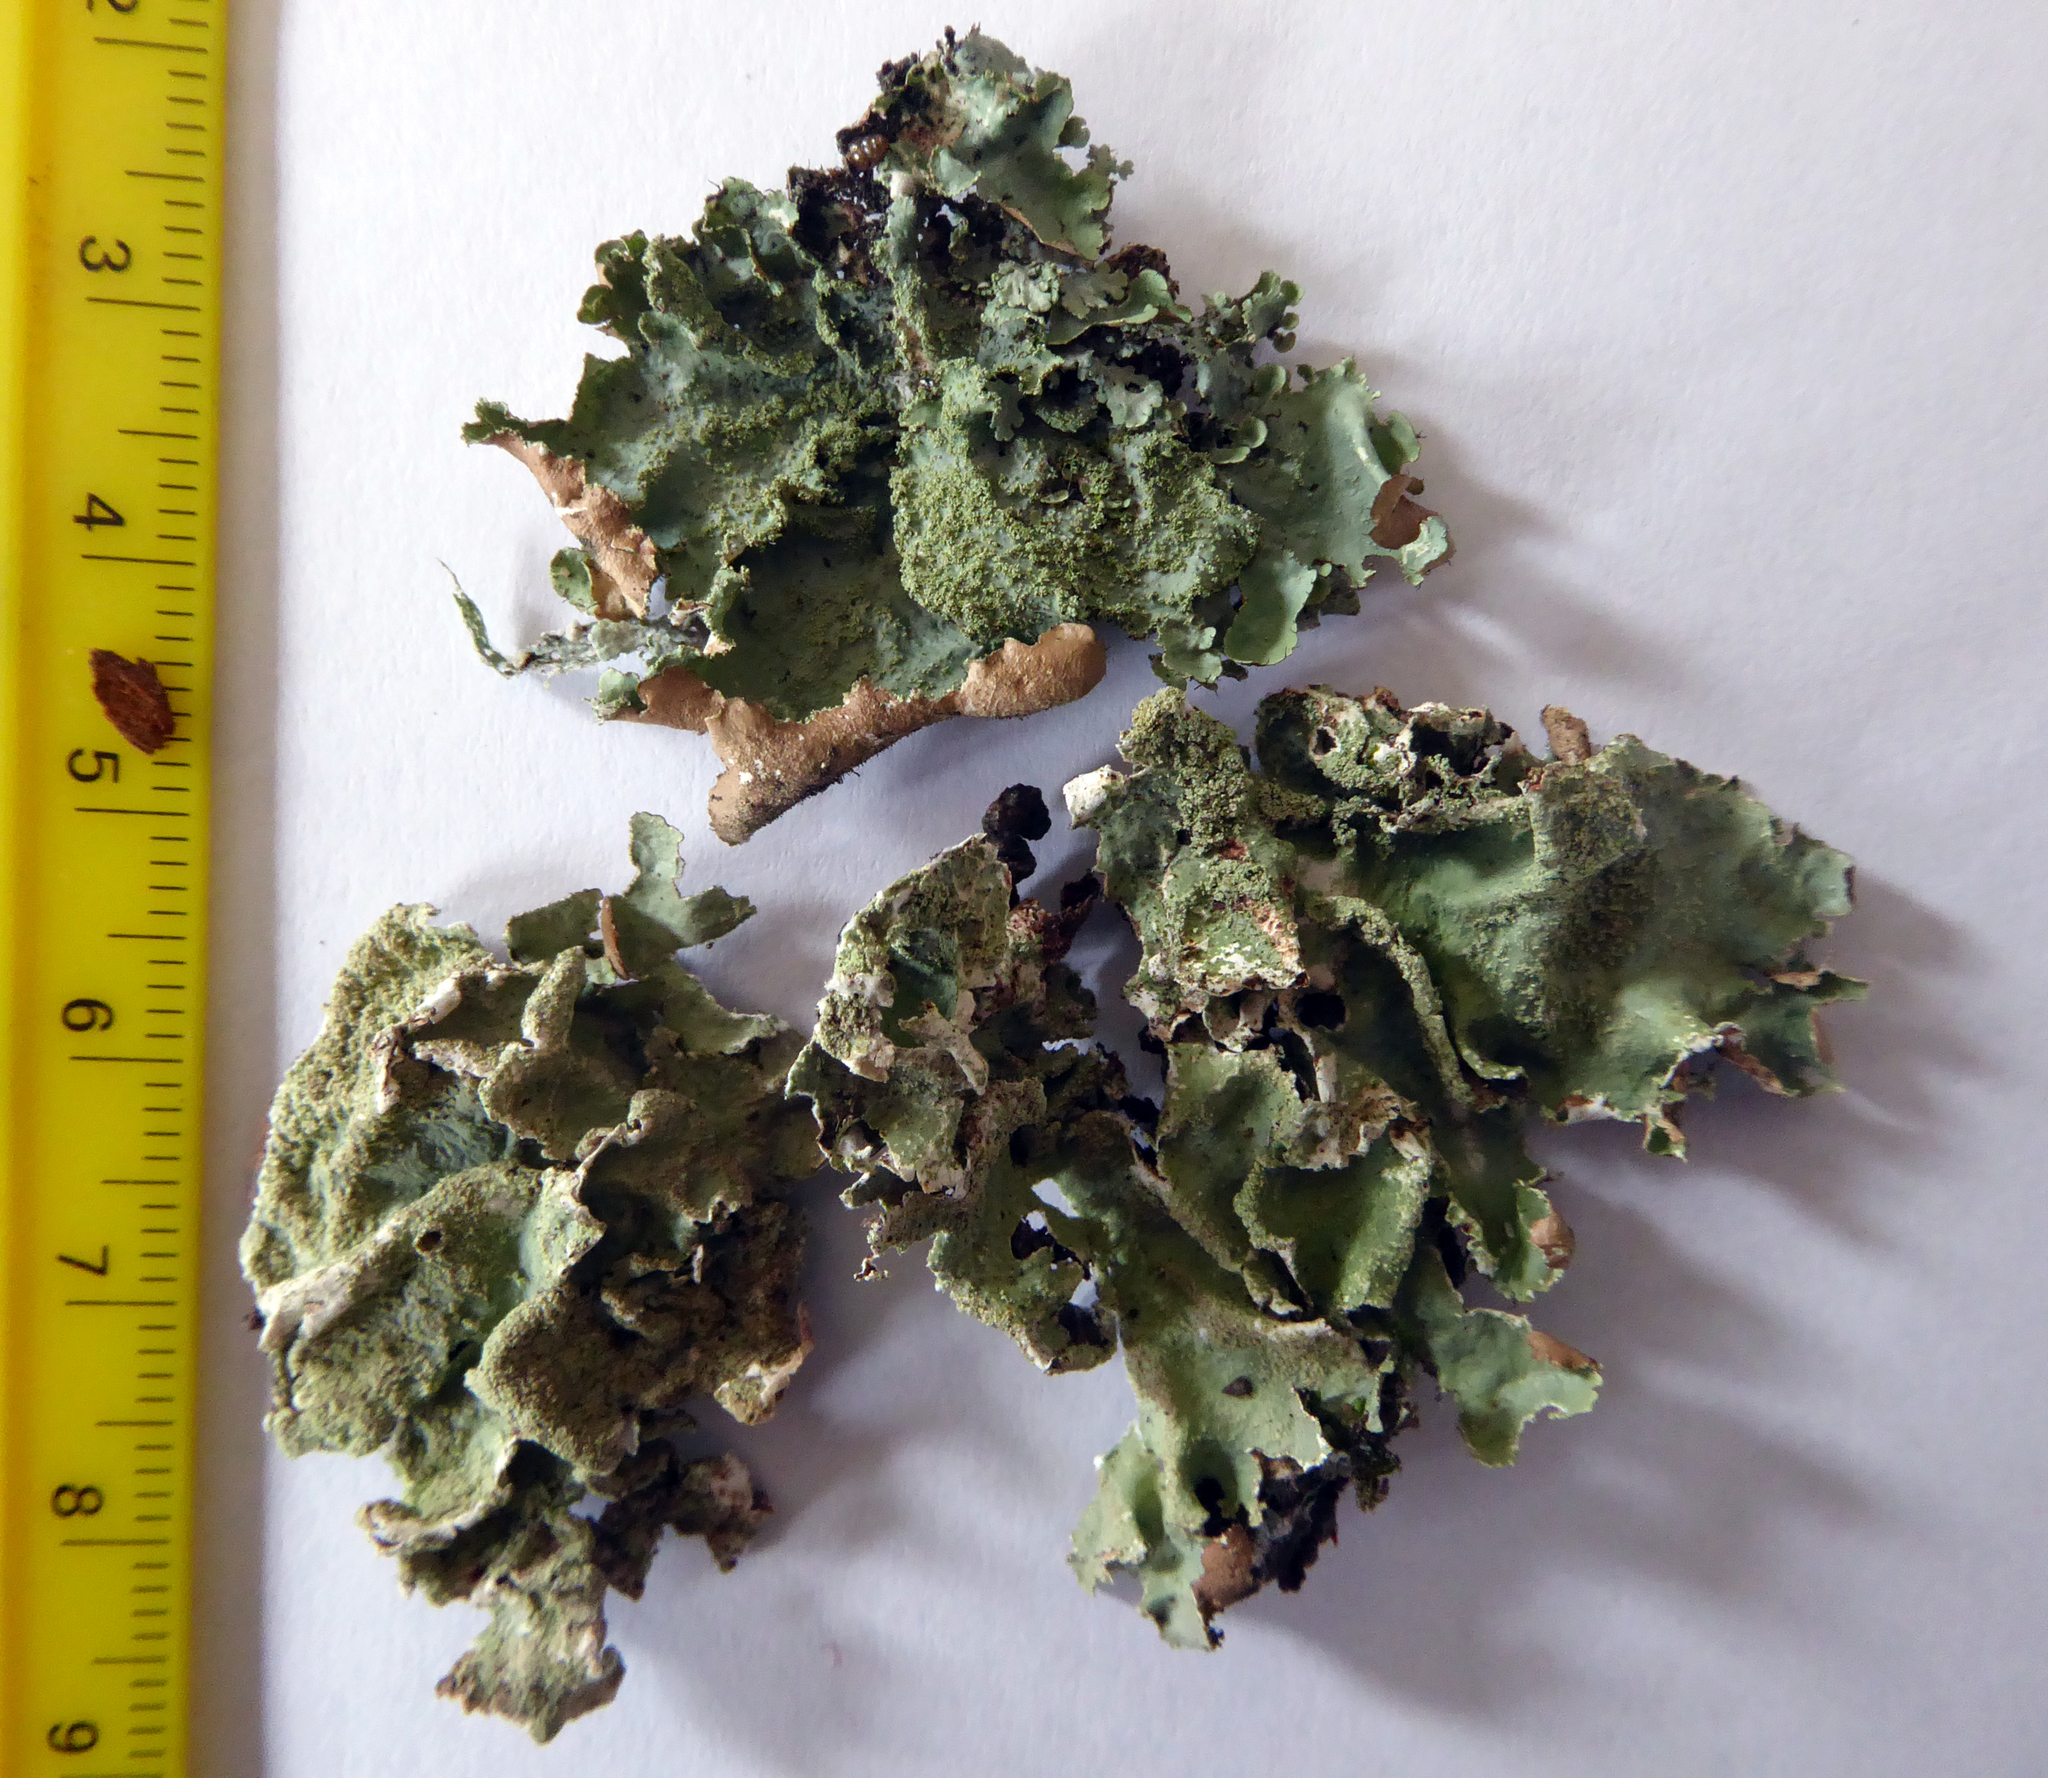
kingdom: Fungi
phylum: Ascomycota
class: Lecanoromycetes
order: Lecanorales
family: Parmeliaceae
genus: Parmotrema
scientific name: Parmotrema subtinctorium
